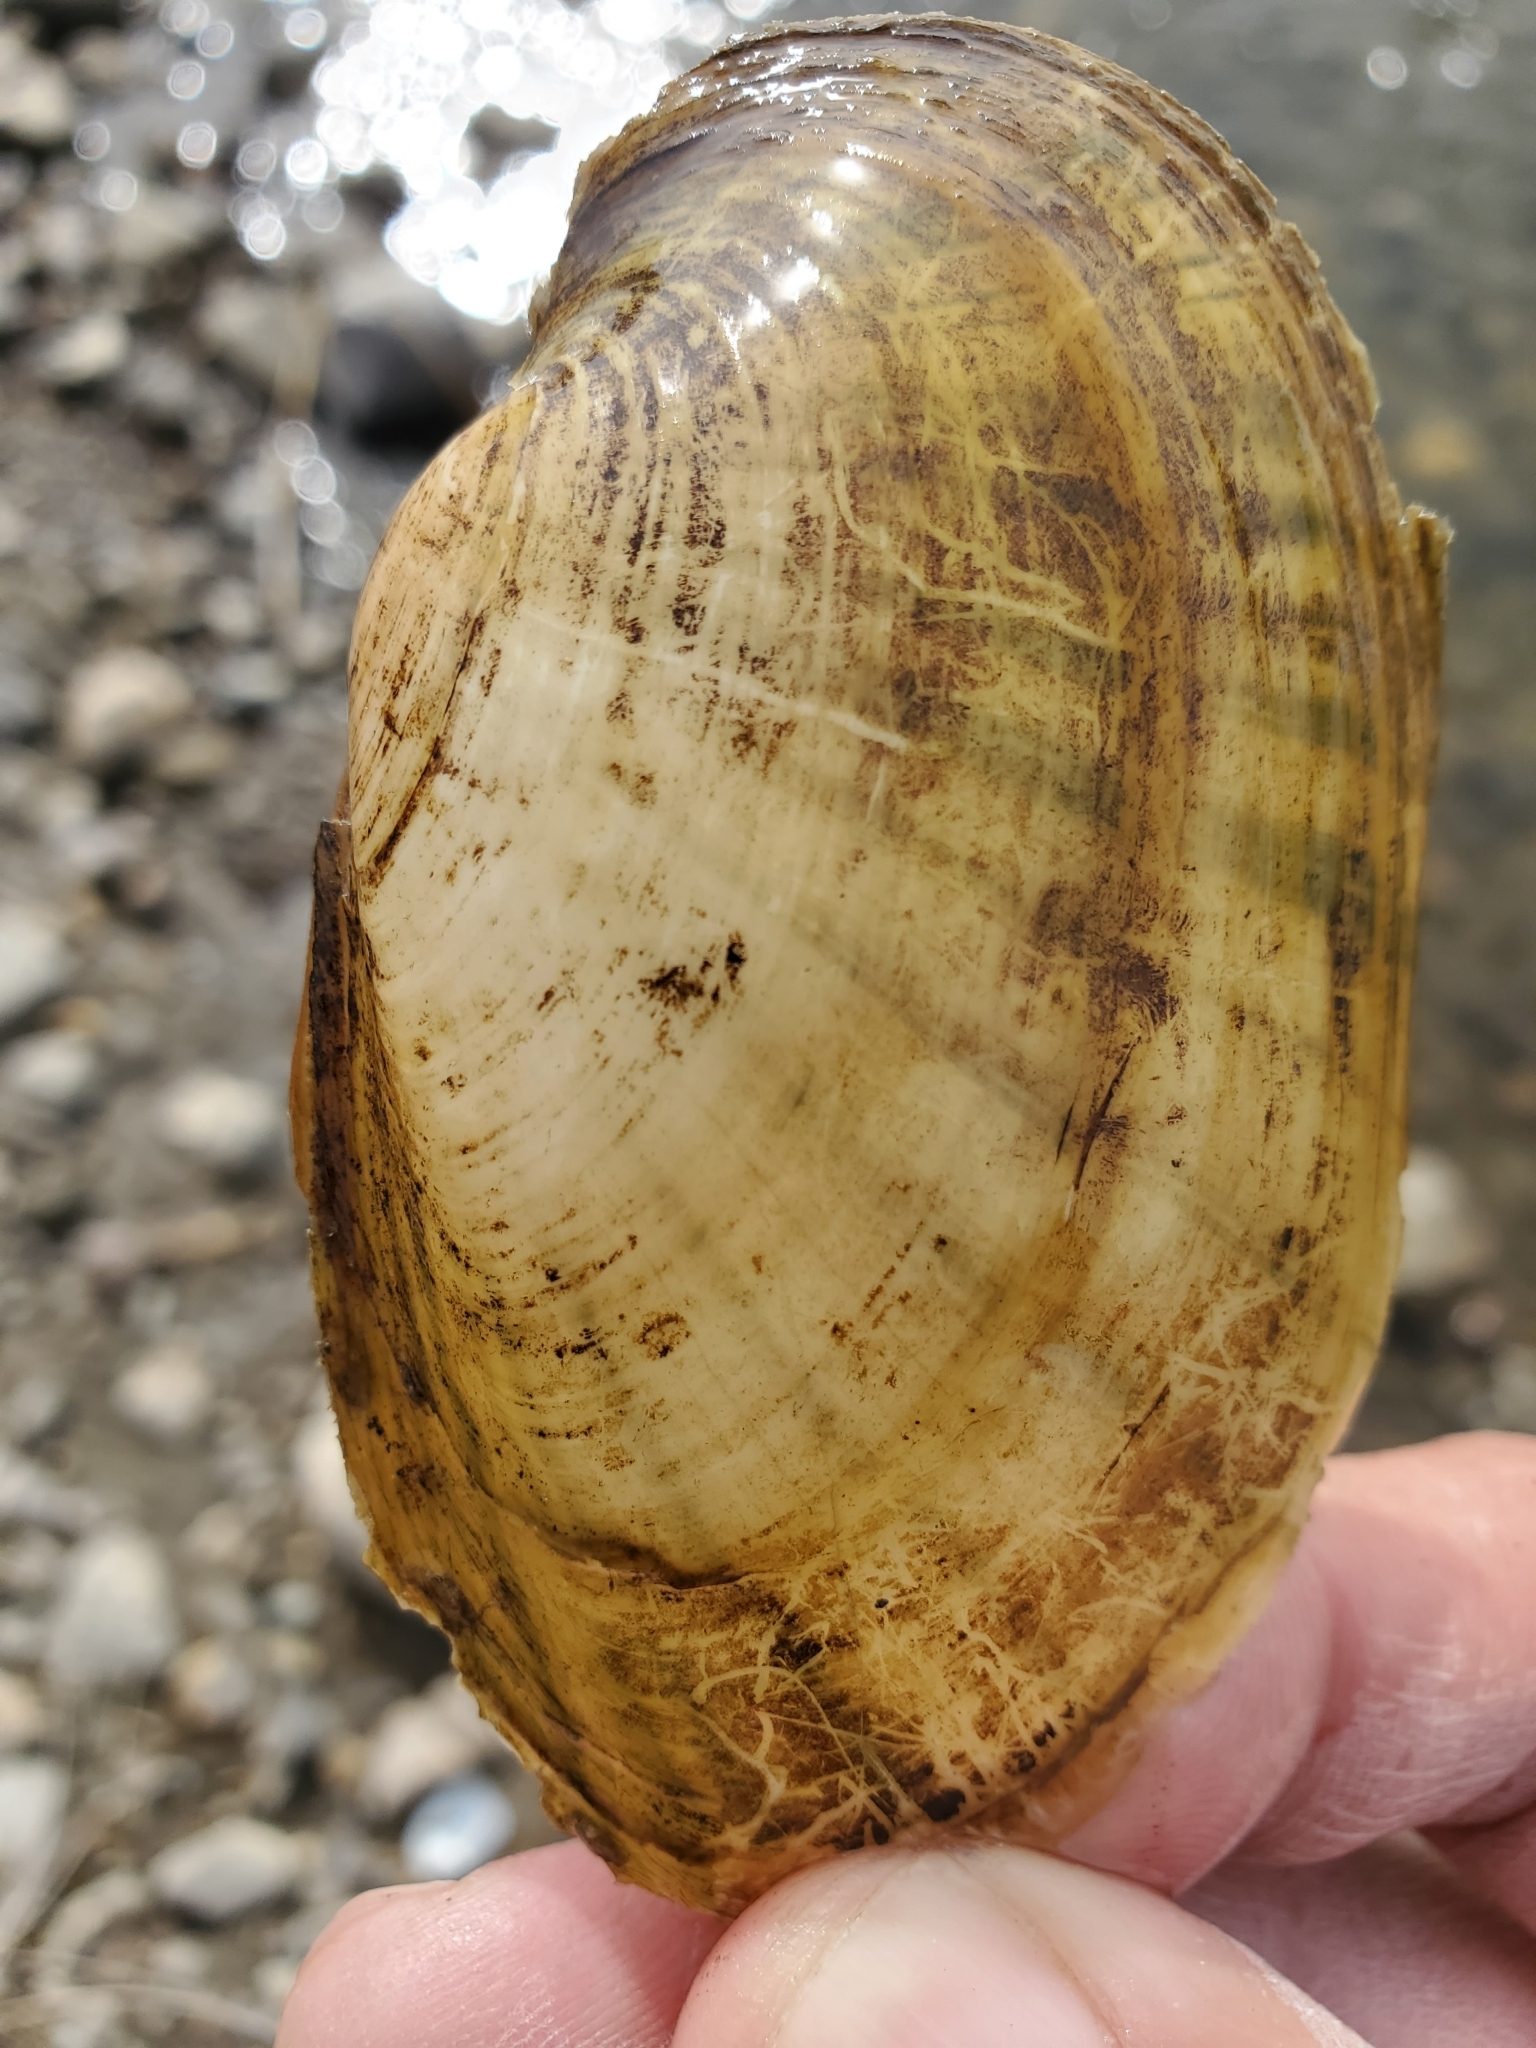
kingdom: Animalia
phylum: Mollusca
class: Bivalvia
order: Unionida
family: Unionidae
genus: Lampsilis
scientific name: Lampsilis siliquoidea
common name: Fatmucket
